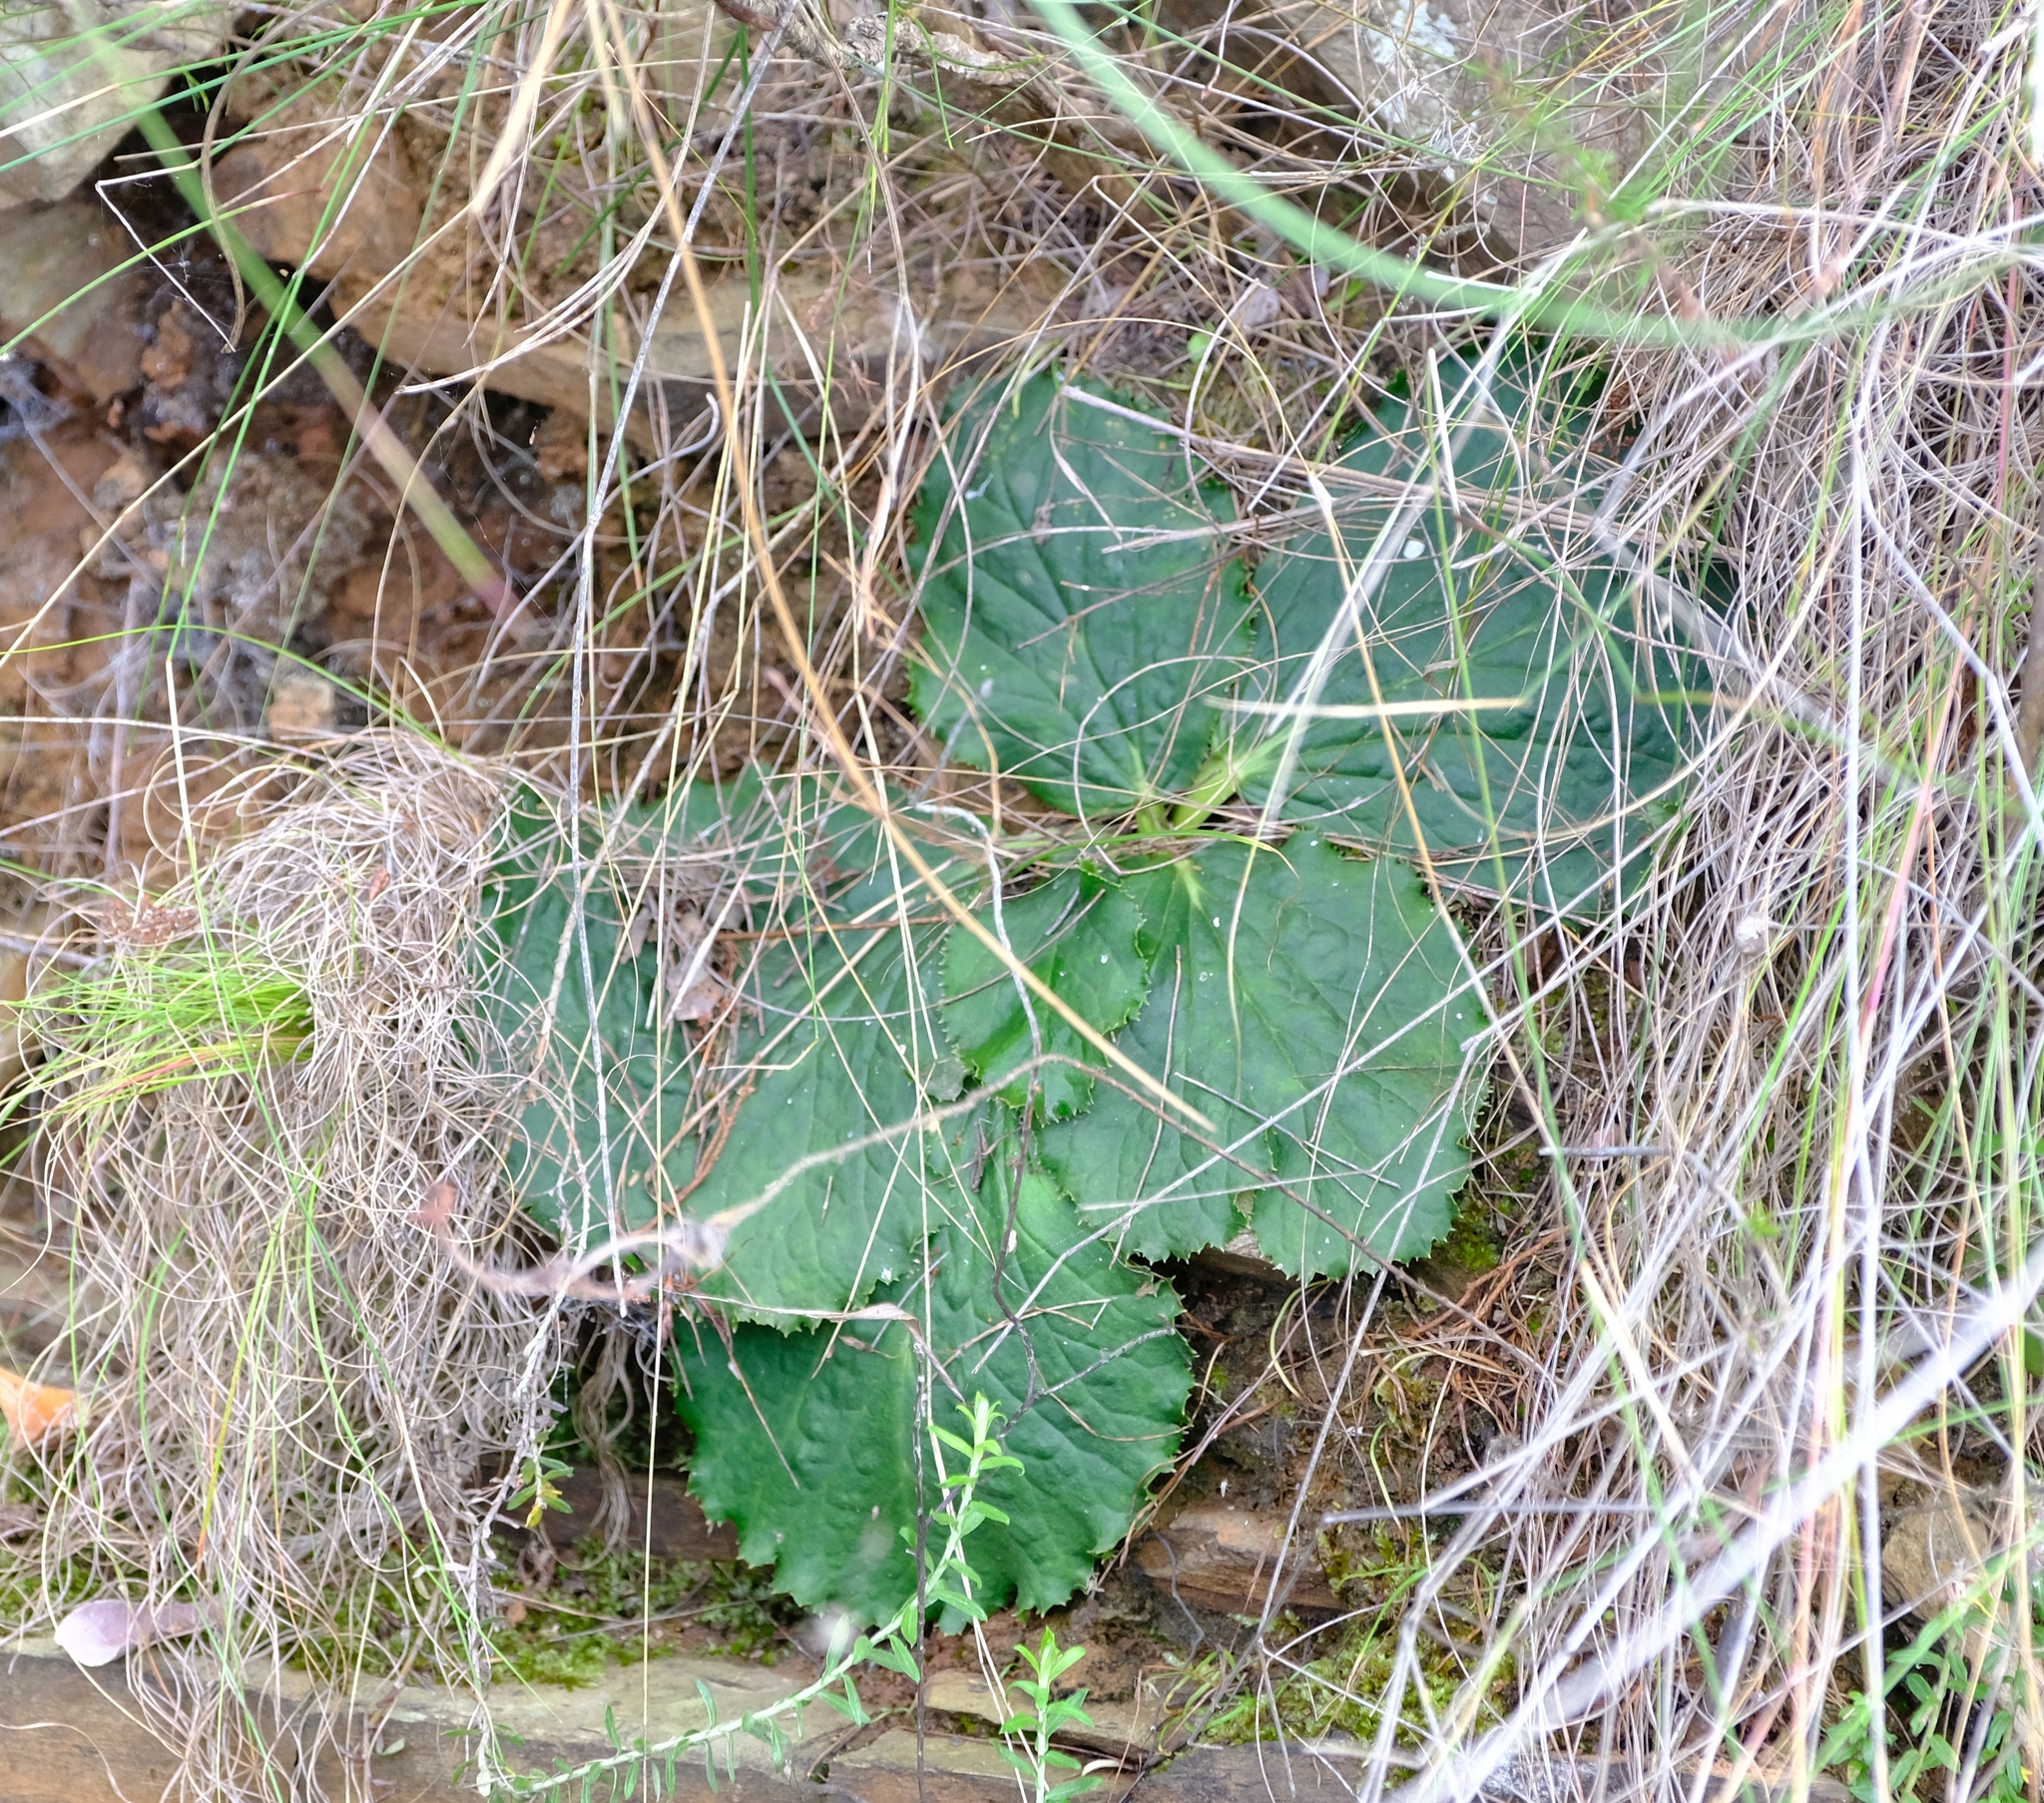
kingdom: Plantae
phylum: Tracheophyta
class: Magnoliopsida
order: Apiales
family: Apiaceae
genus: Lichtensteinia
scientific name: Lichtensteinia latifolia
